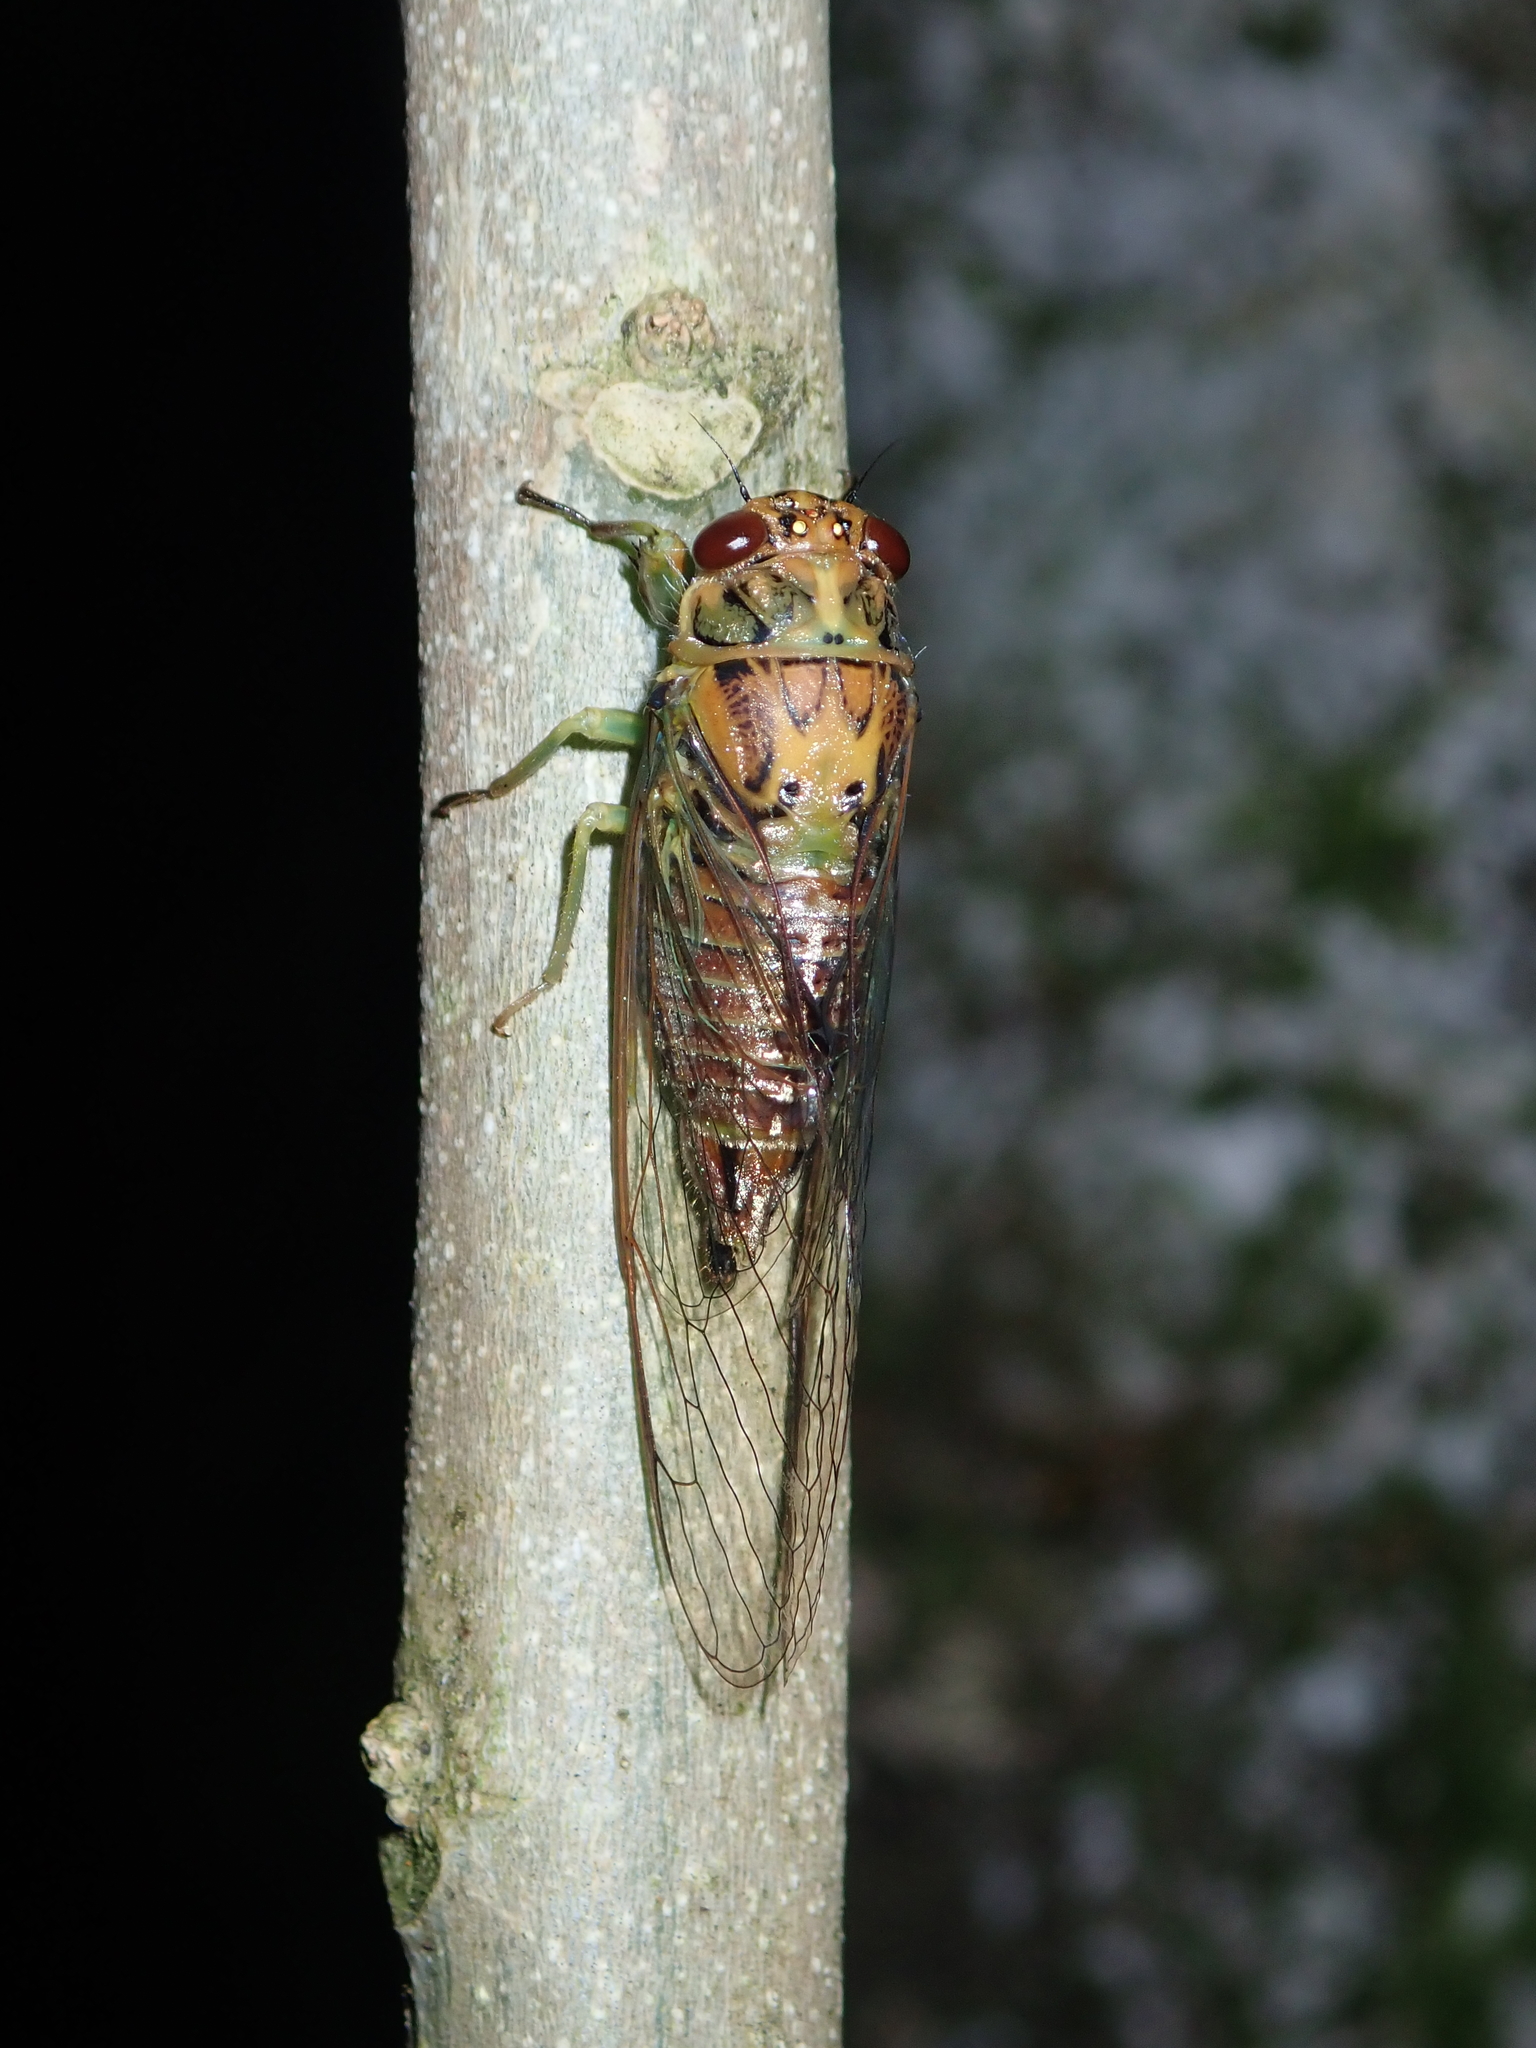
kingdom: Animalia
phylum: Arthropoda
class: Insecta
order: Hemiptera
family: Cicadidae
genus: Kikihia
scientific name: Kikihia scutellaris
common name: Lesser bronze cicada
